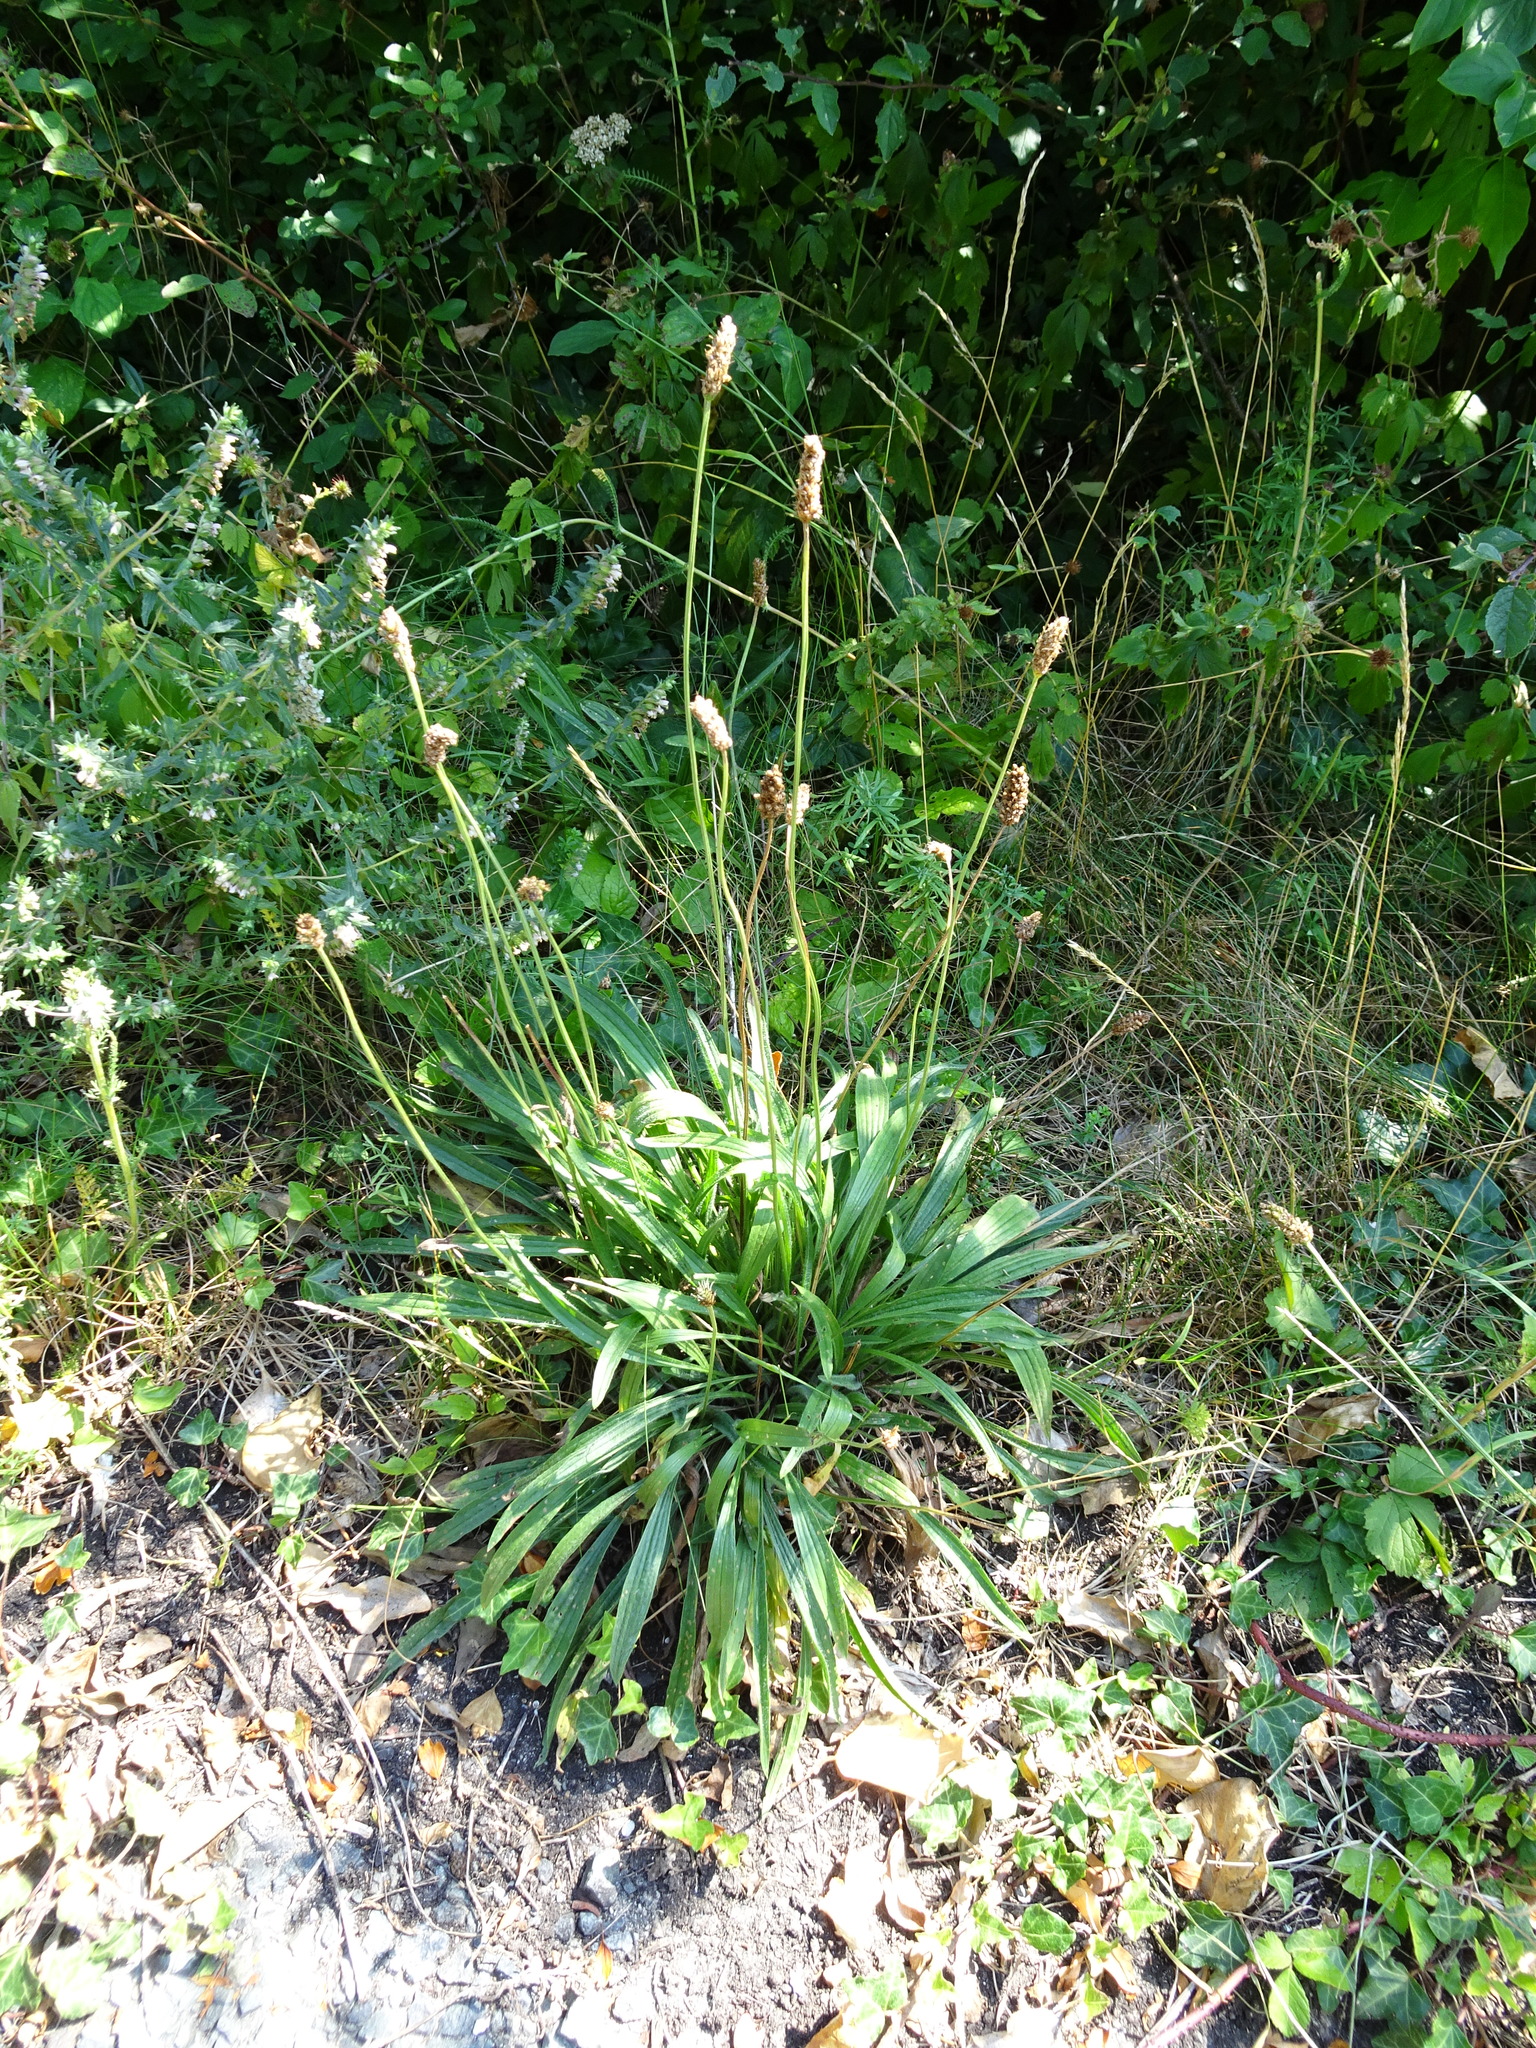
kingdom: Plantae
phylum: Tracheophyta
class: Magnoliopsida
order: Lamiales
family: Plantaginaceae
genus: Plantago
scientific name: Plantago lanceolata
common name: Ribwort plantain
